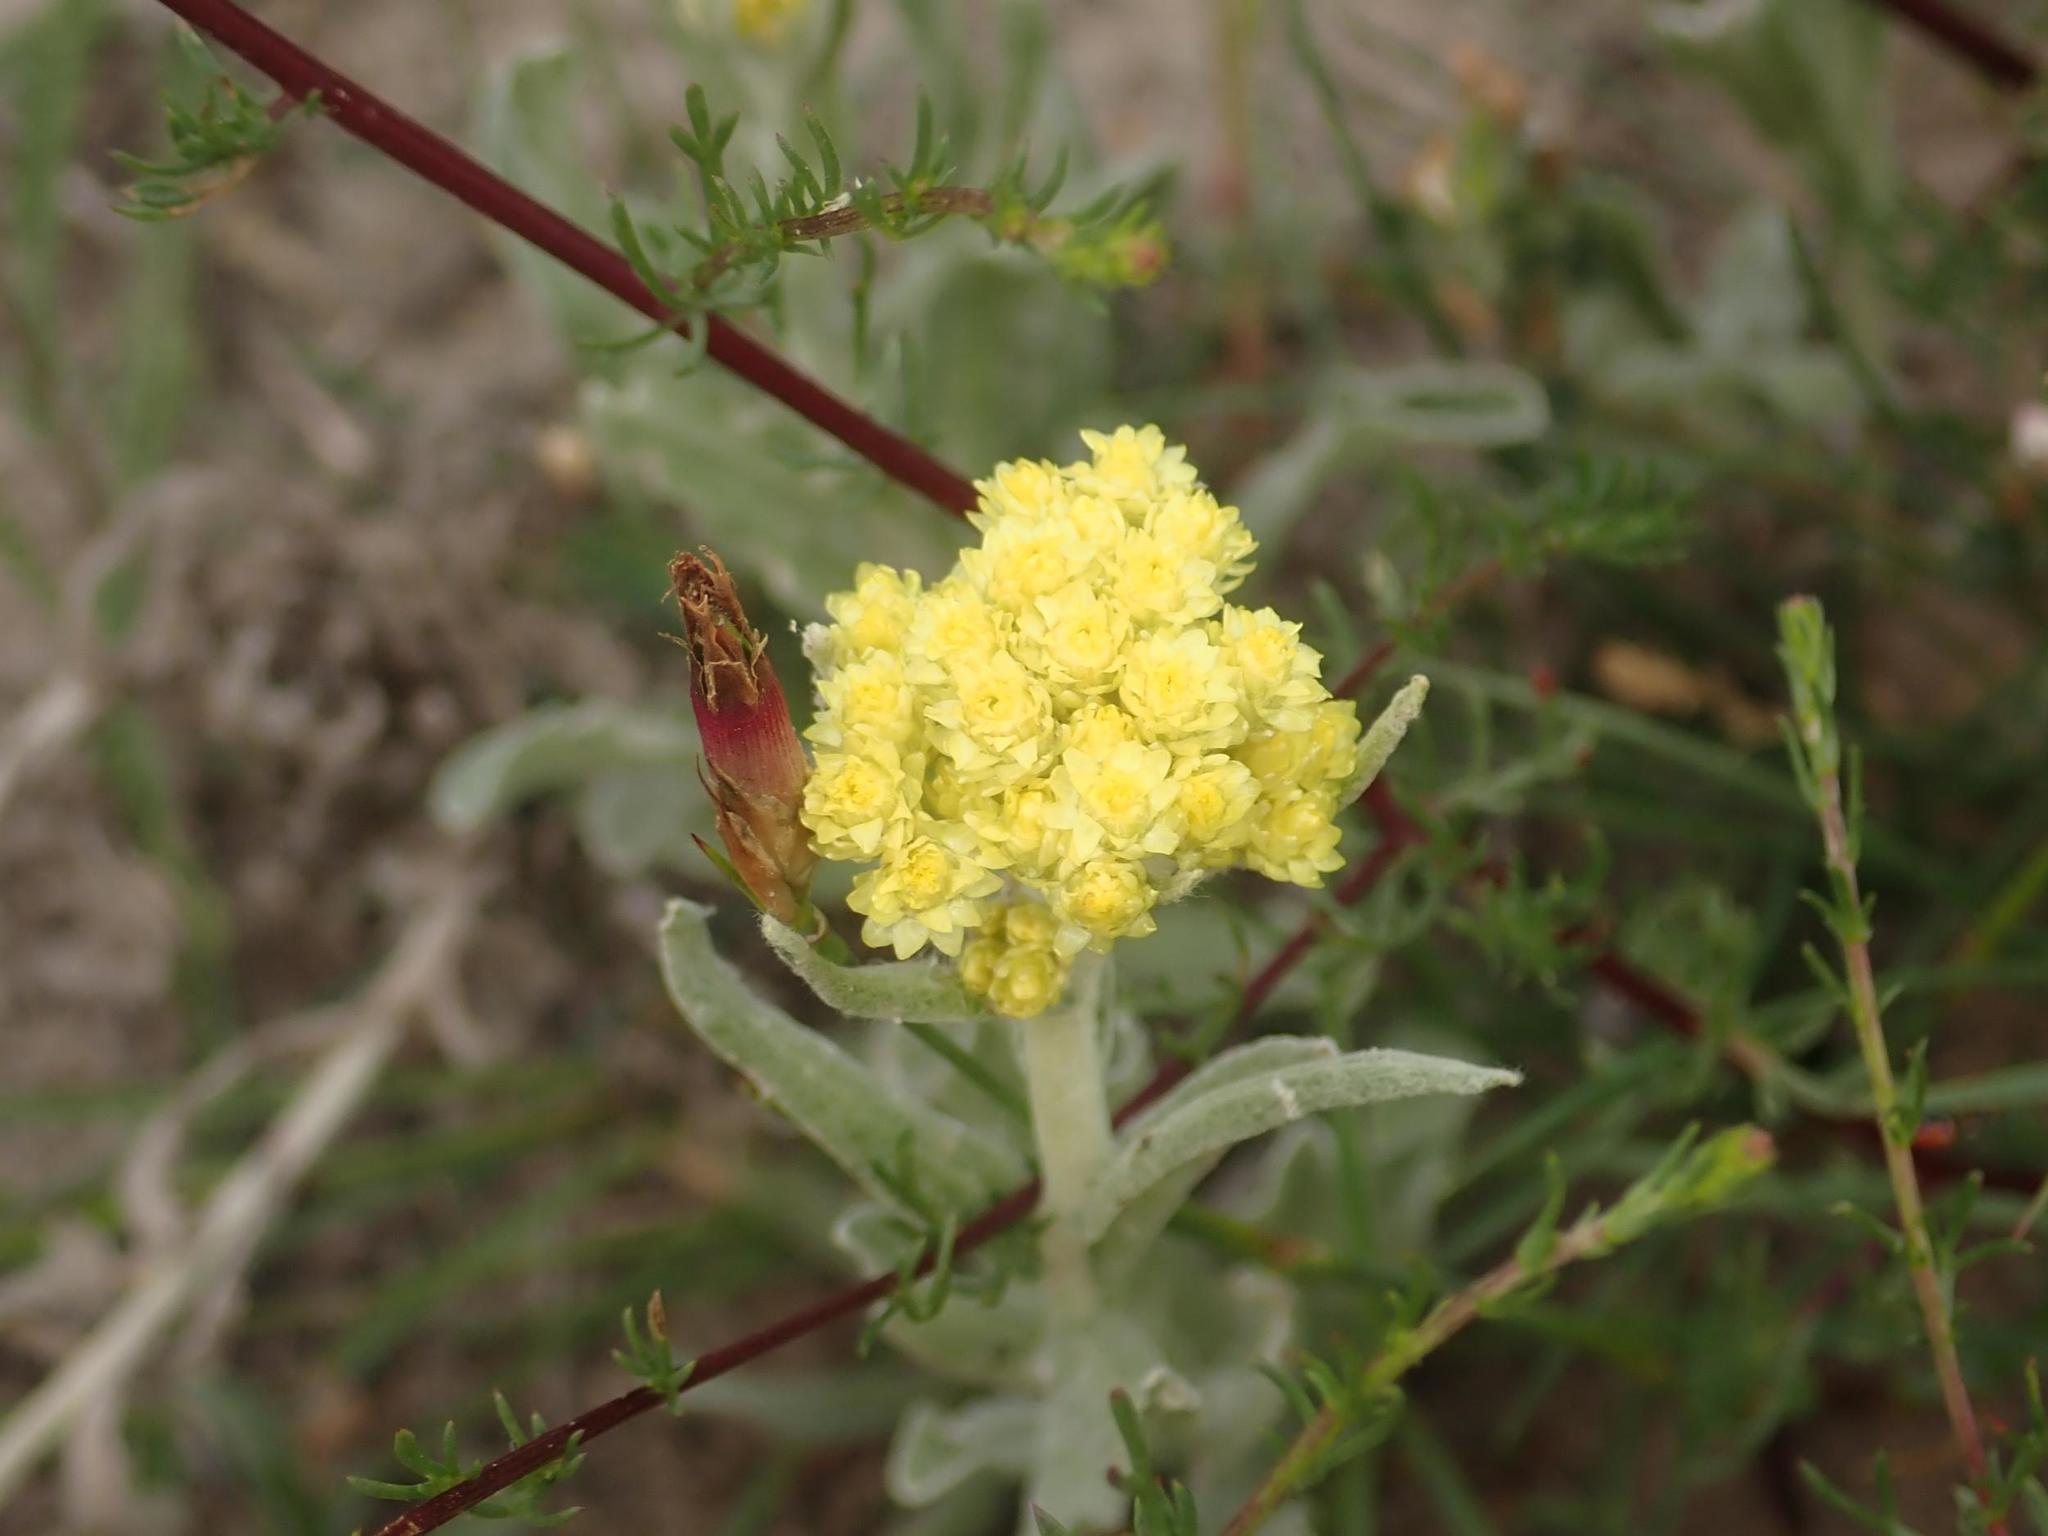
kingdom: Plantae
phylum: Tracheophyta
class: Magnoliopsida
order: Asterales
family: Asteraceae
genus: Helichrysum
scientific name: Helichrysum arenarium
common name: Strawflower
